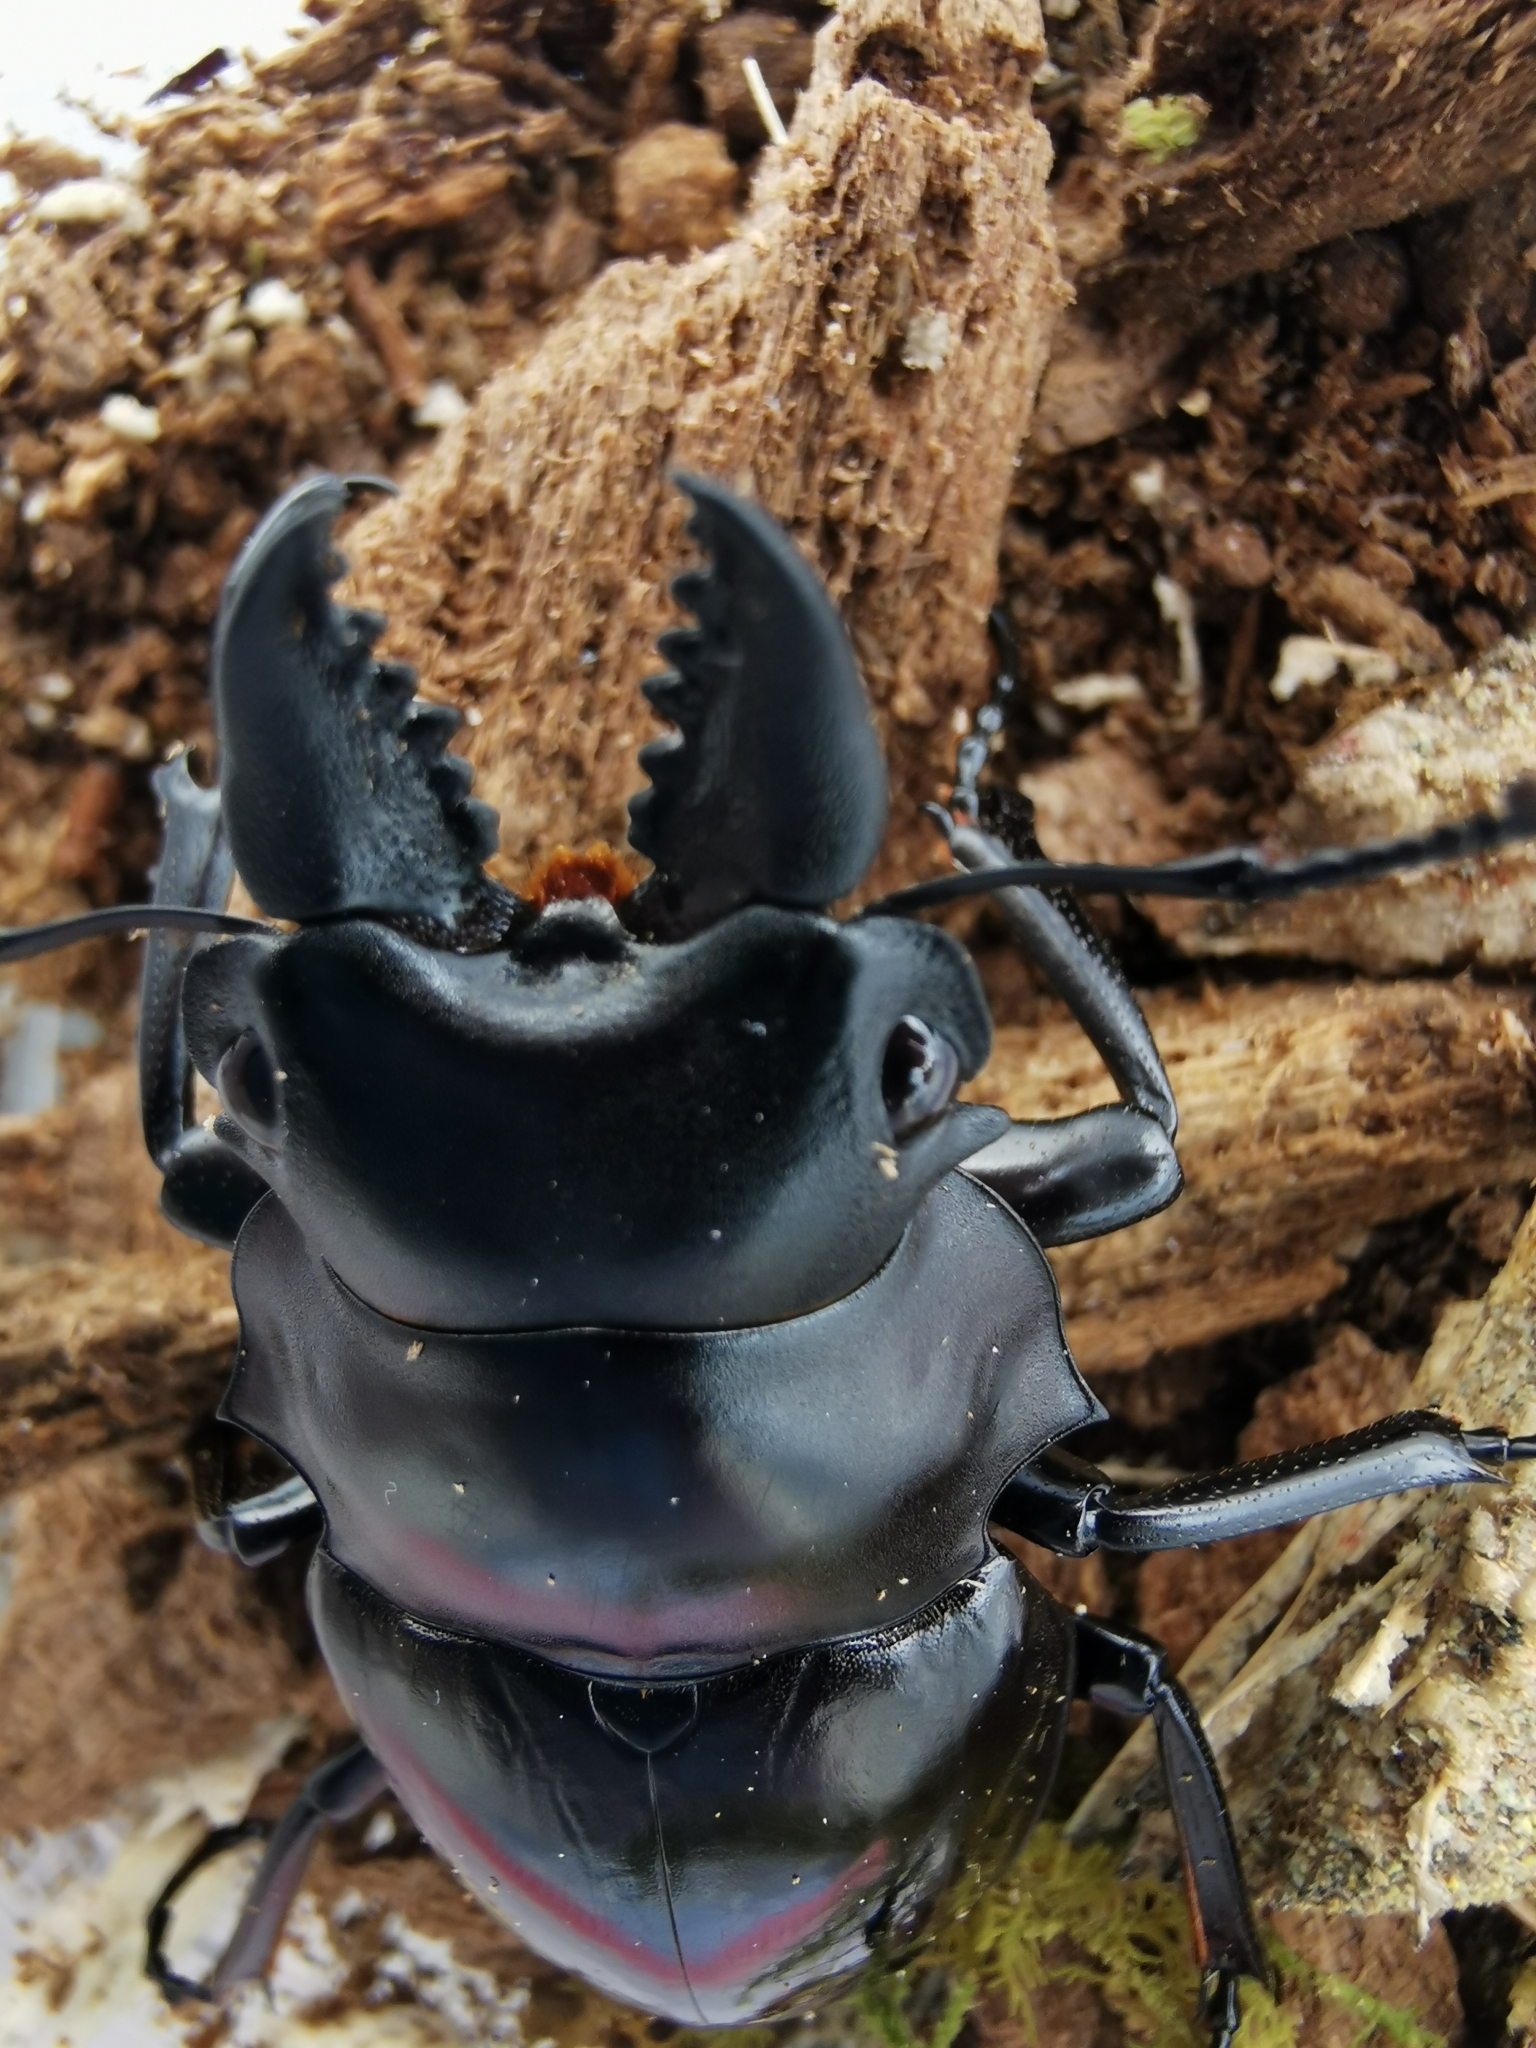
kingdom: Animalia
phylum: Arthropoda
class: Insecta
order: Coleoptera
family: Lucanidae
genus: Odontolabis
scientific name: Odontolabis siva
